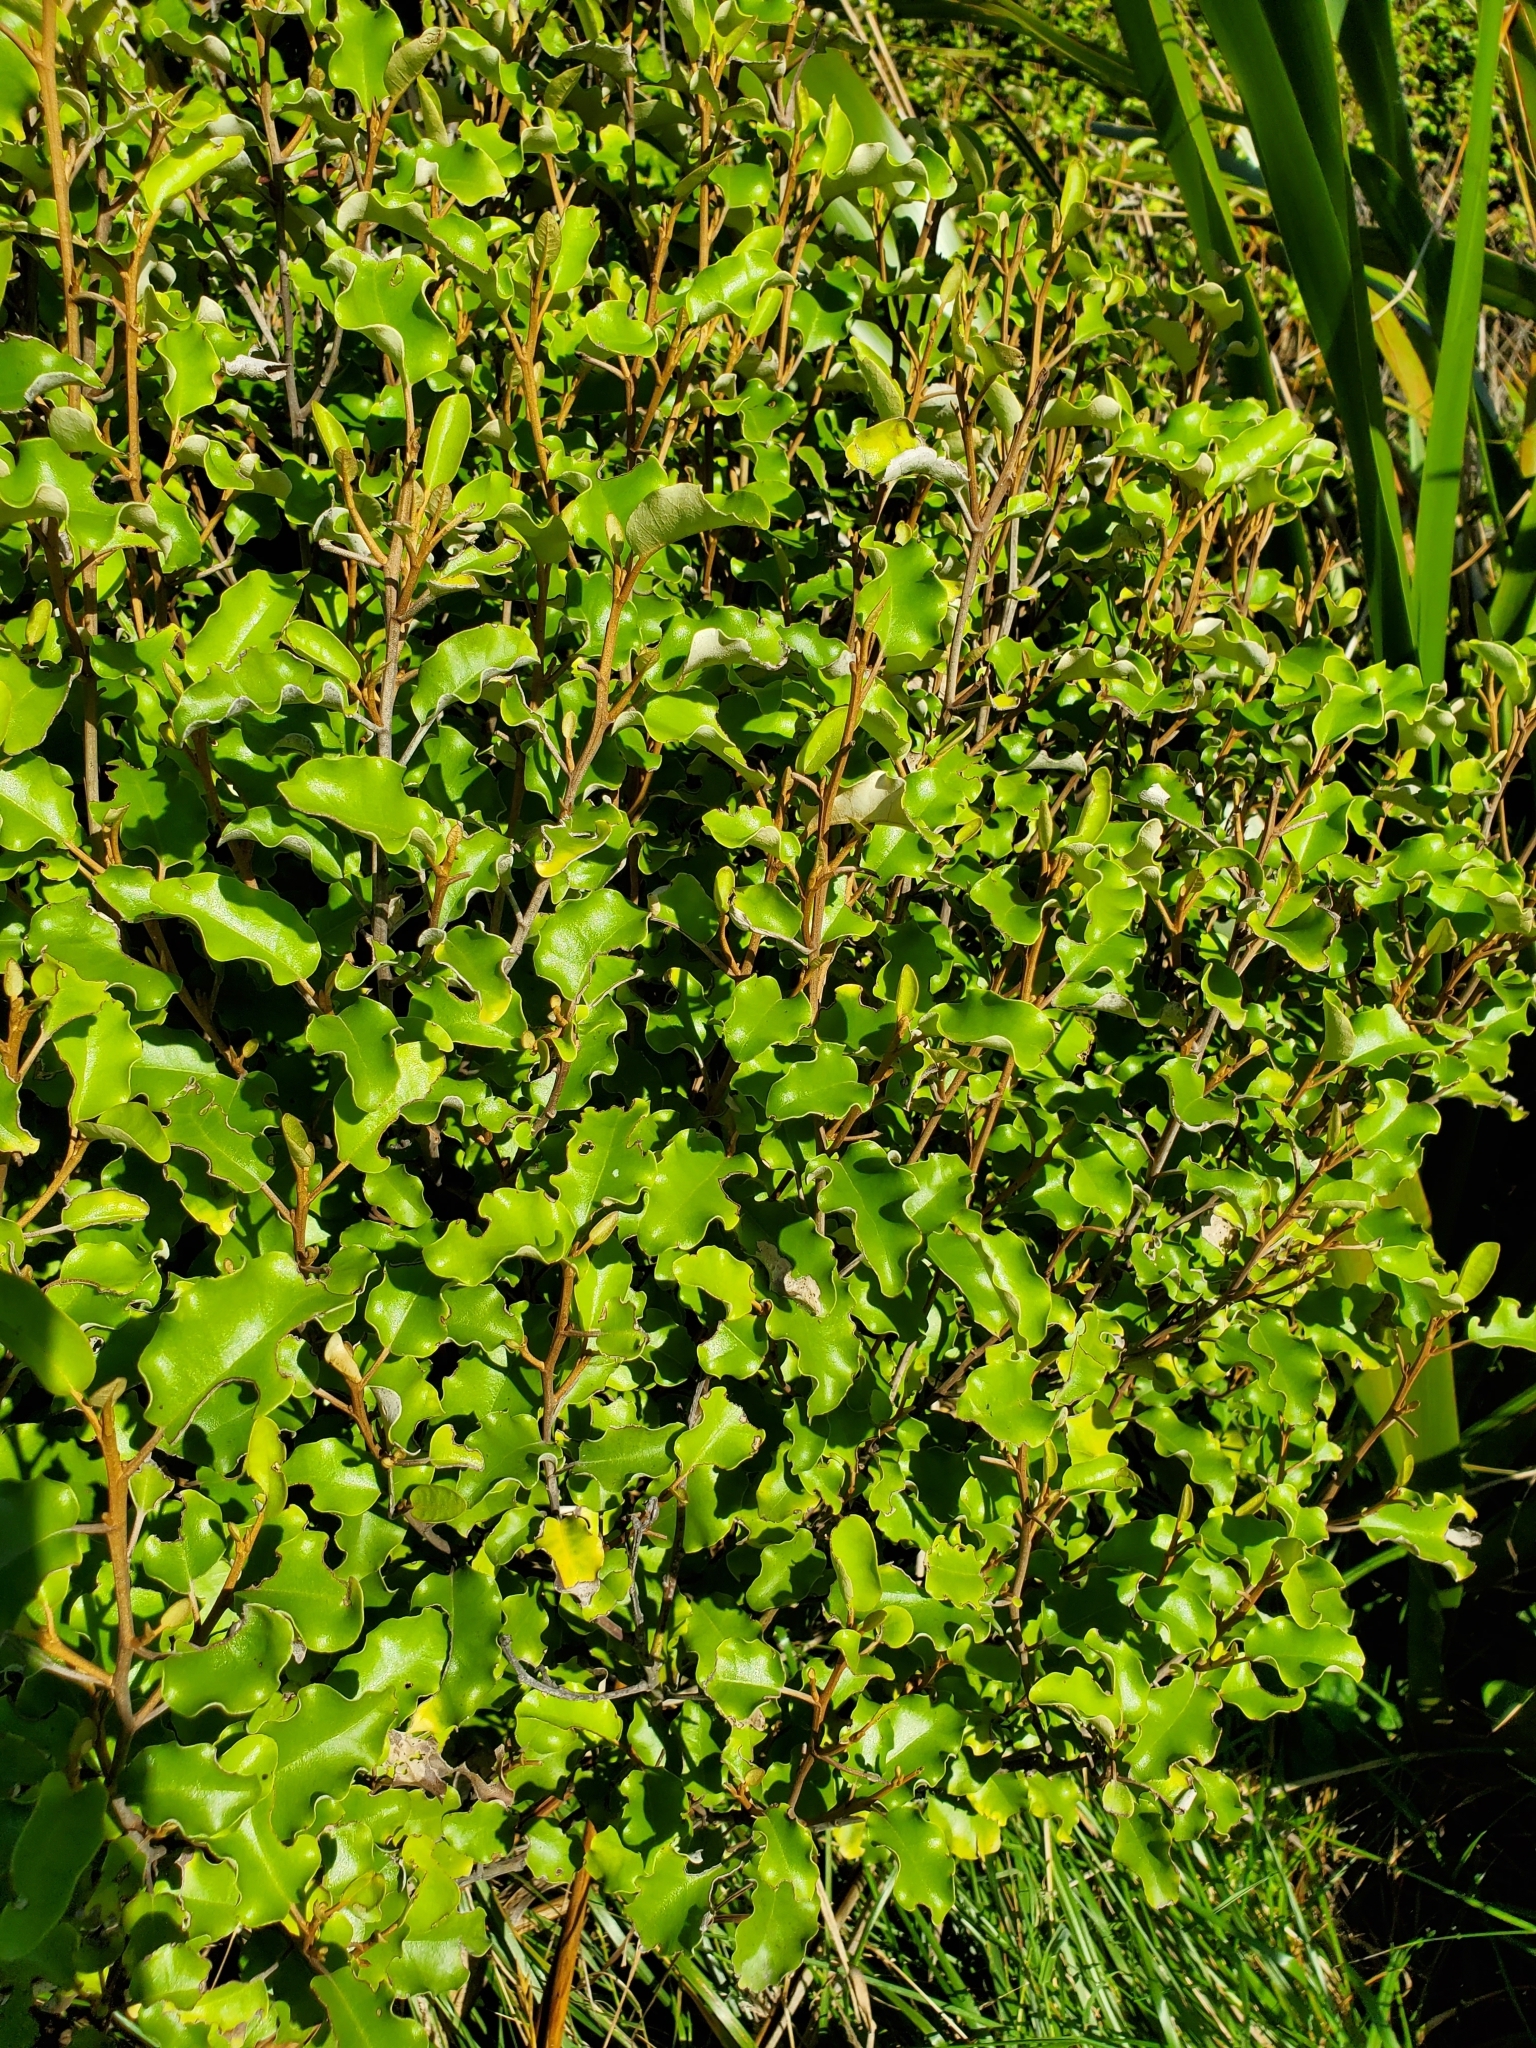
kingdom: Plantae
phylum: Tracheophyta
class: Magnoliopsida
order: Asterales
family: Asteraceae
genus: Olearia
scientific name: Olearia paniculata
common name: Akiraho
